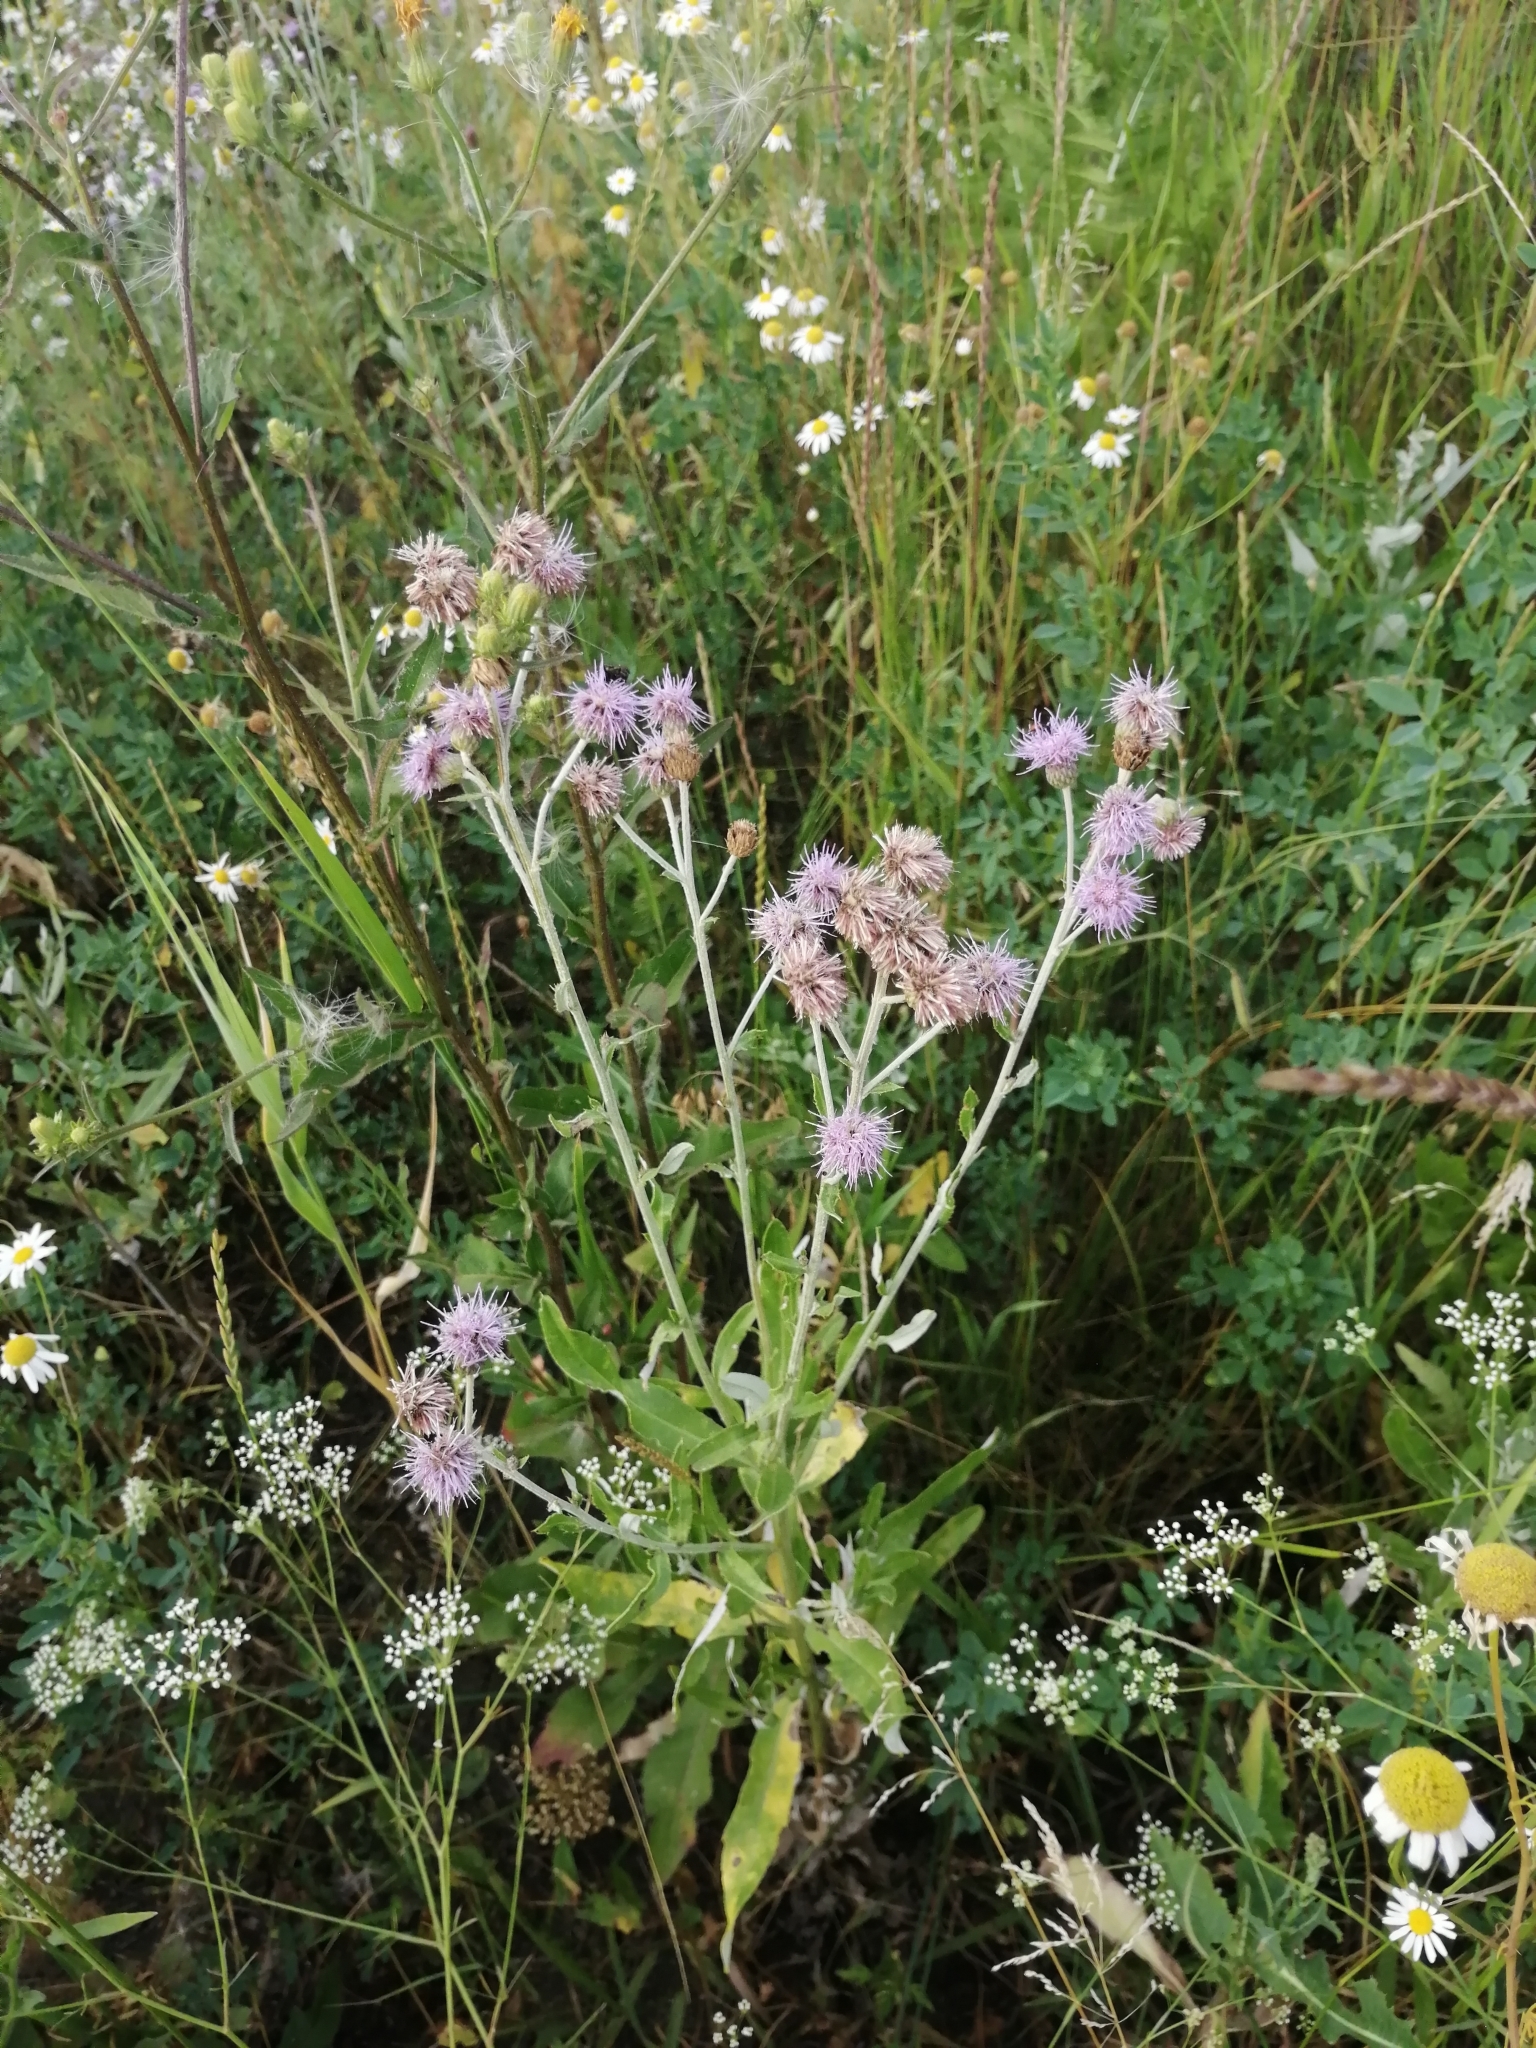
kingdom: Plantae
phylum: Tracheophyta
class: Magnoliopsida
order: Asterales
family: Asteraceae
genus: Cirsium
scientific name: Cirsium arvense
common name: Creeping thistle
